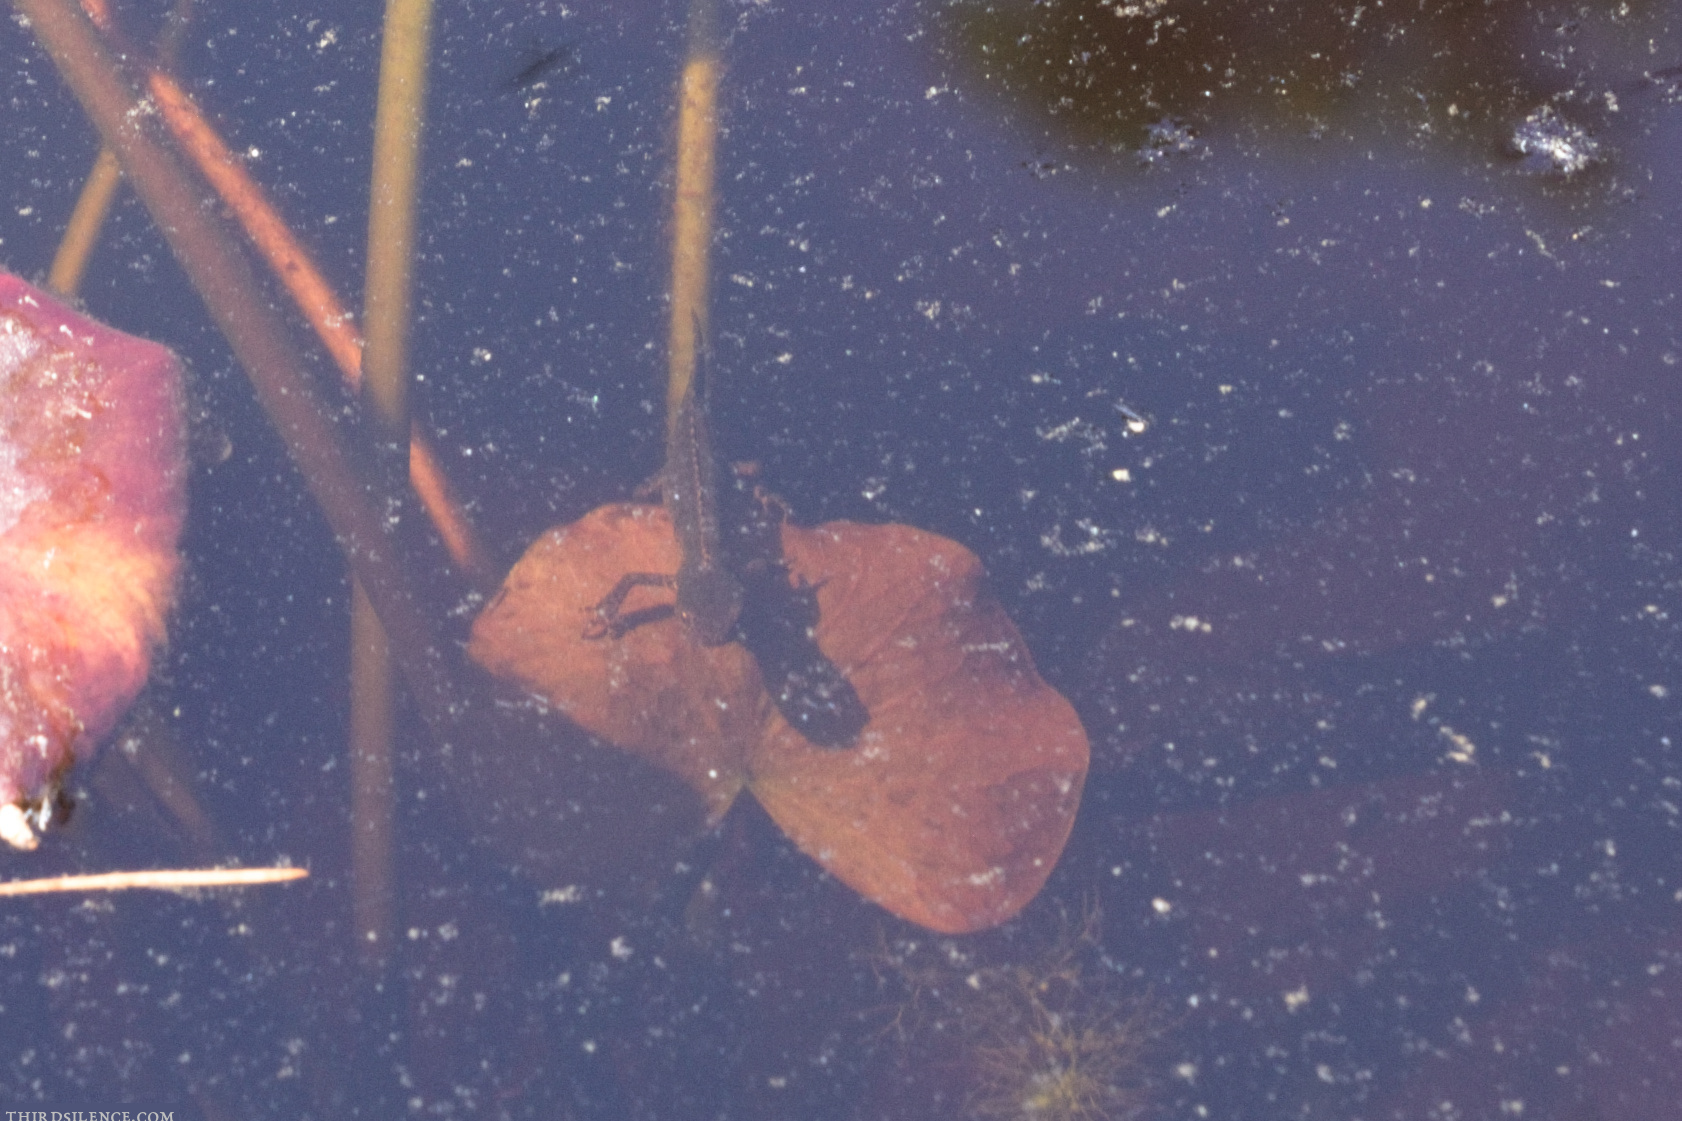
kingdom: Animalia
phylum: Chordata
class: Amphibia
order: Caudata
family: Salamandridae
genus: Ichthyosaura
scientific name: Ichthyosaura alpestris
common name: Alpine newt
